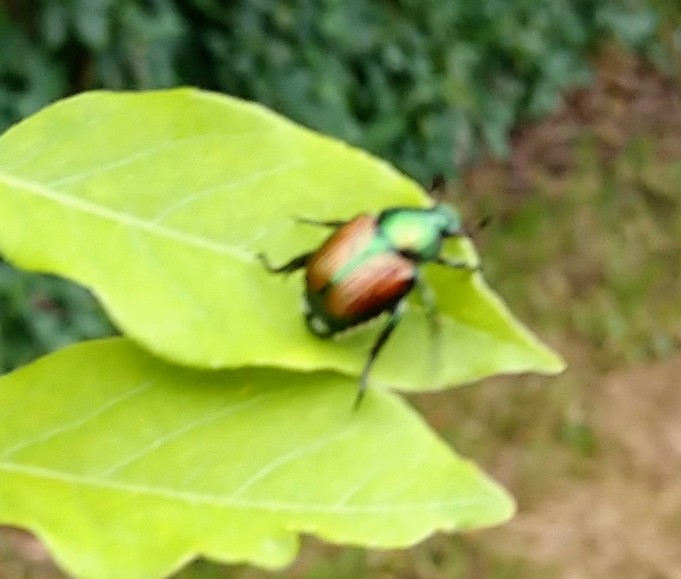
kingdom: Animalia
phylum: Arthropoda
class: Insecta
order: Coleoptera
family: Scarabaeidae
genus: Popillia
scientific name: Popillia japonica
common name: Japanese beetle
